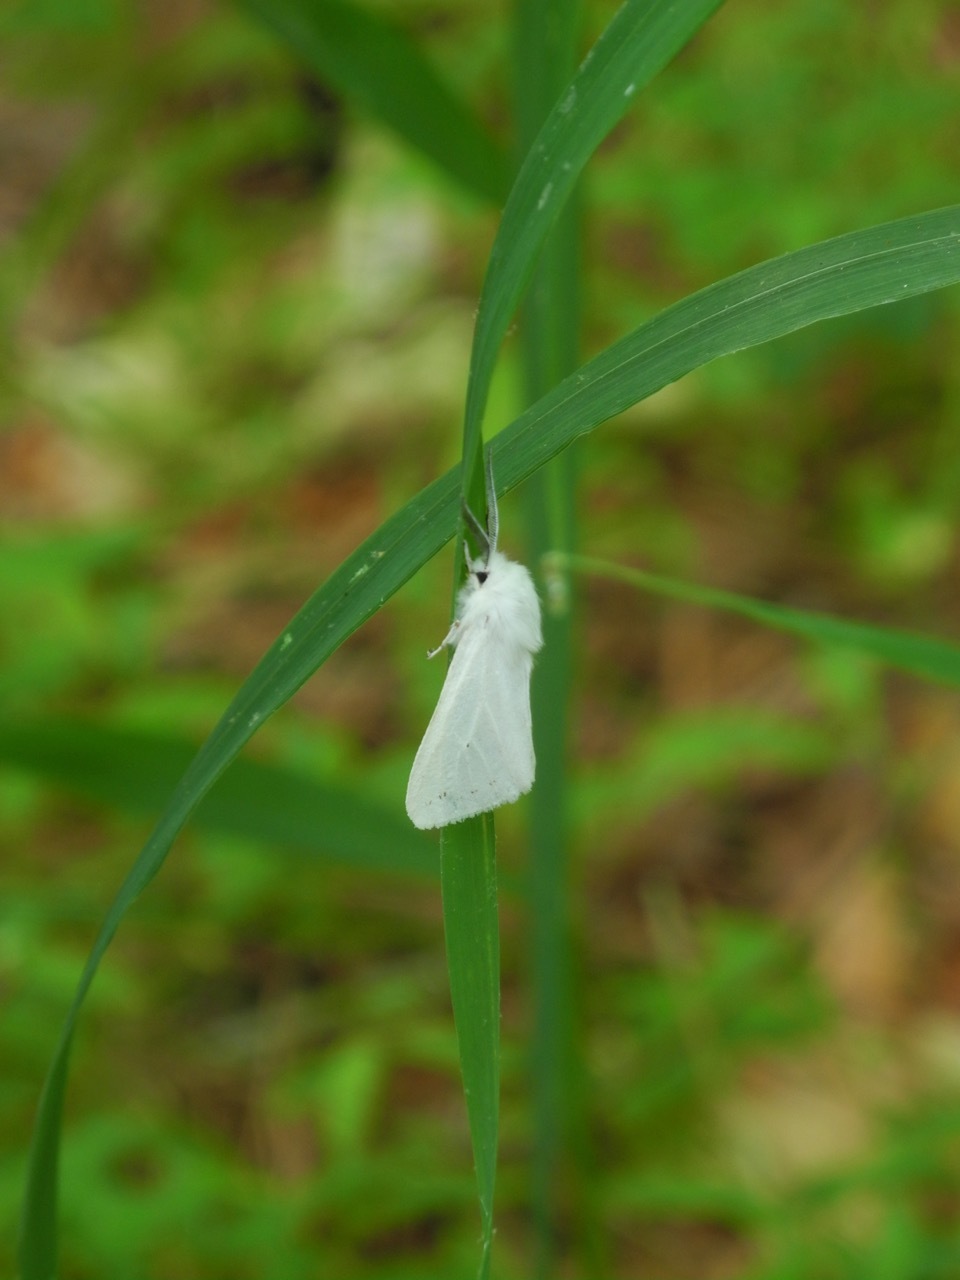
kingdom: Animalia
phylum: Arthropoda
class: Insecta
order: Lepidoptera
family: Erebidae
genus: Spilosoma
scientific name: Spilosoma congrua
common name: Agreeable tiger moth
